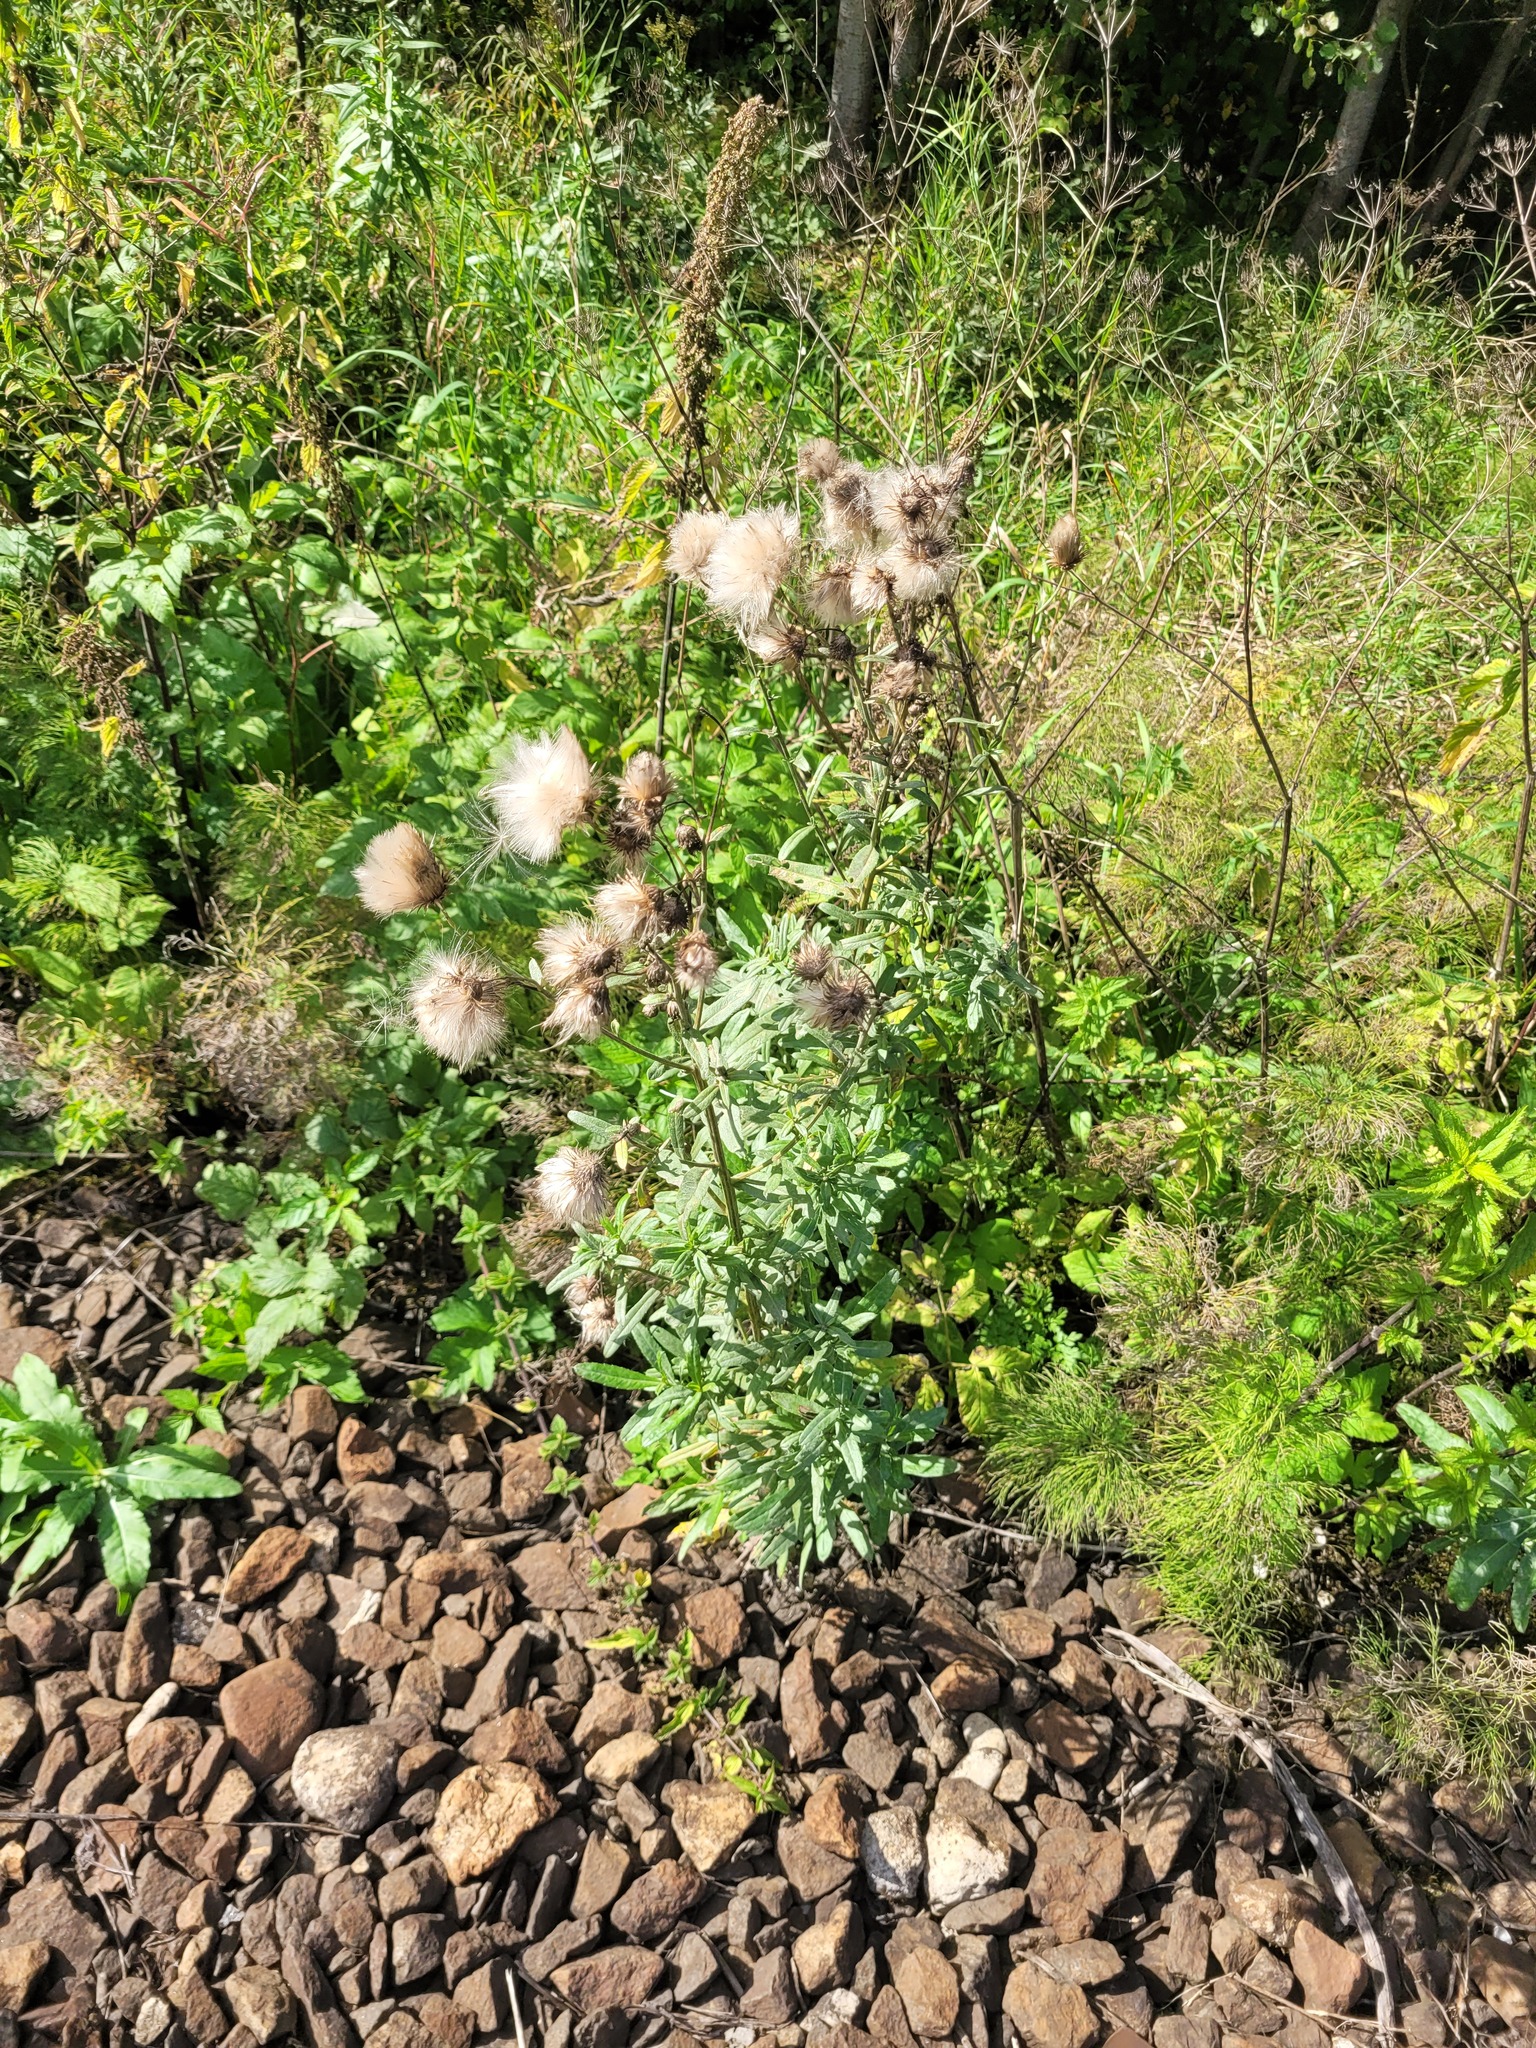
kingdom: Plantae
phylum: Tracheophyta
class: Magnoliopsida
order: Asterales
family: Asteraceae
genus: Cirsium
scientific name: Cirsium arvense
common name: Creeping thistle
